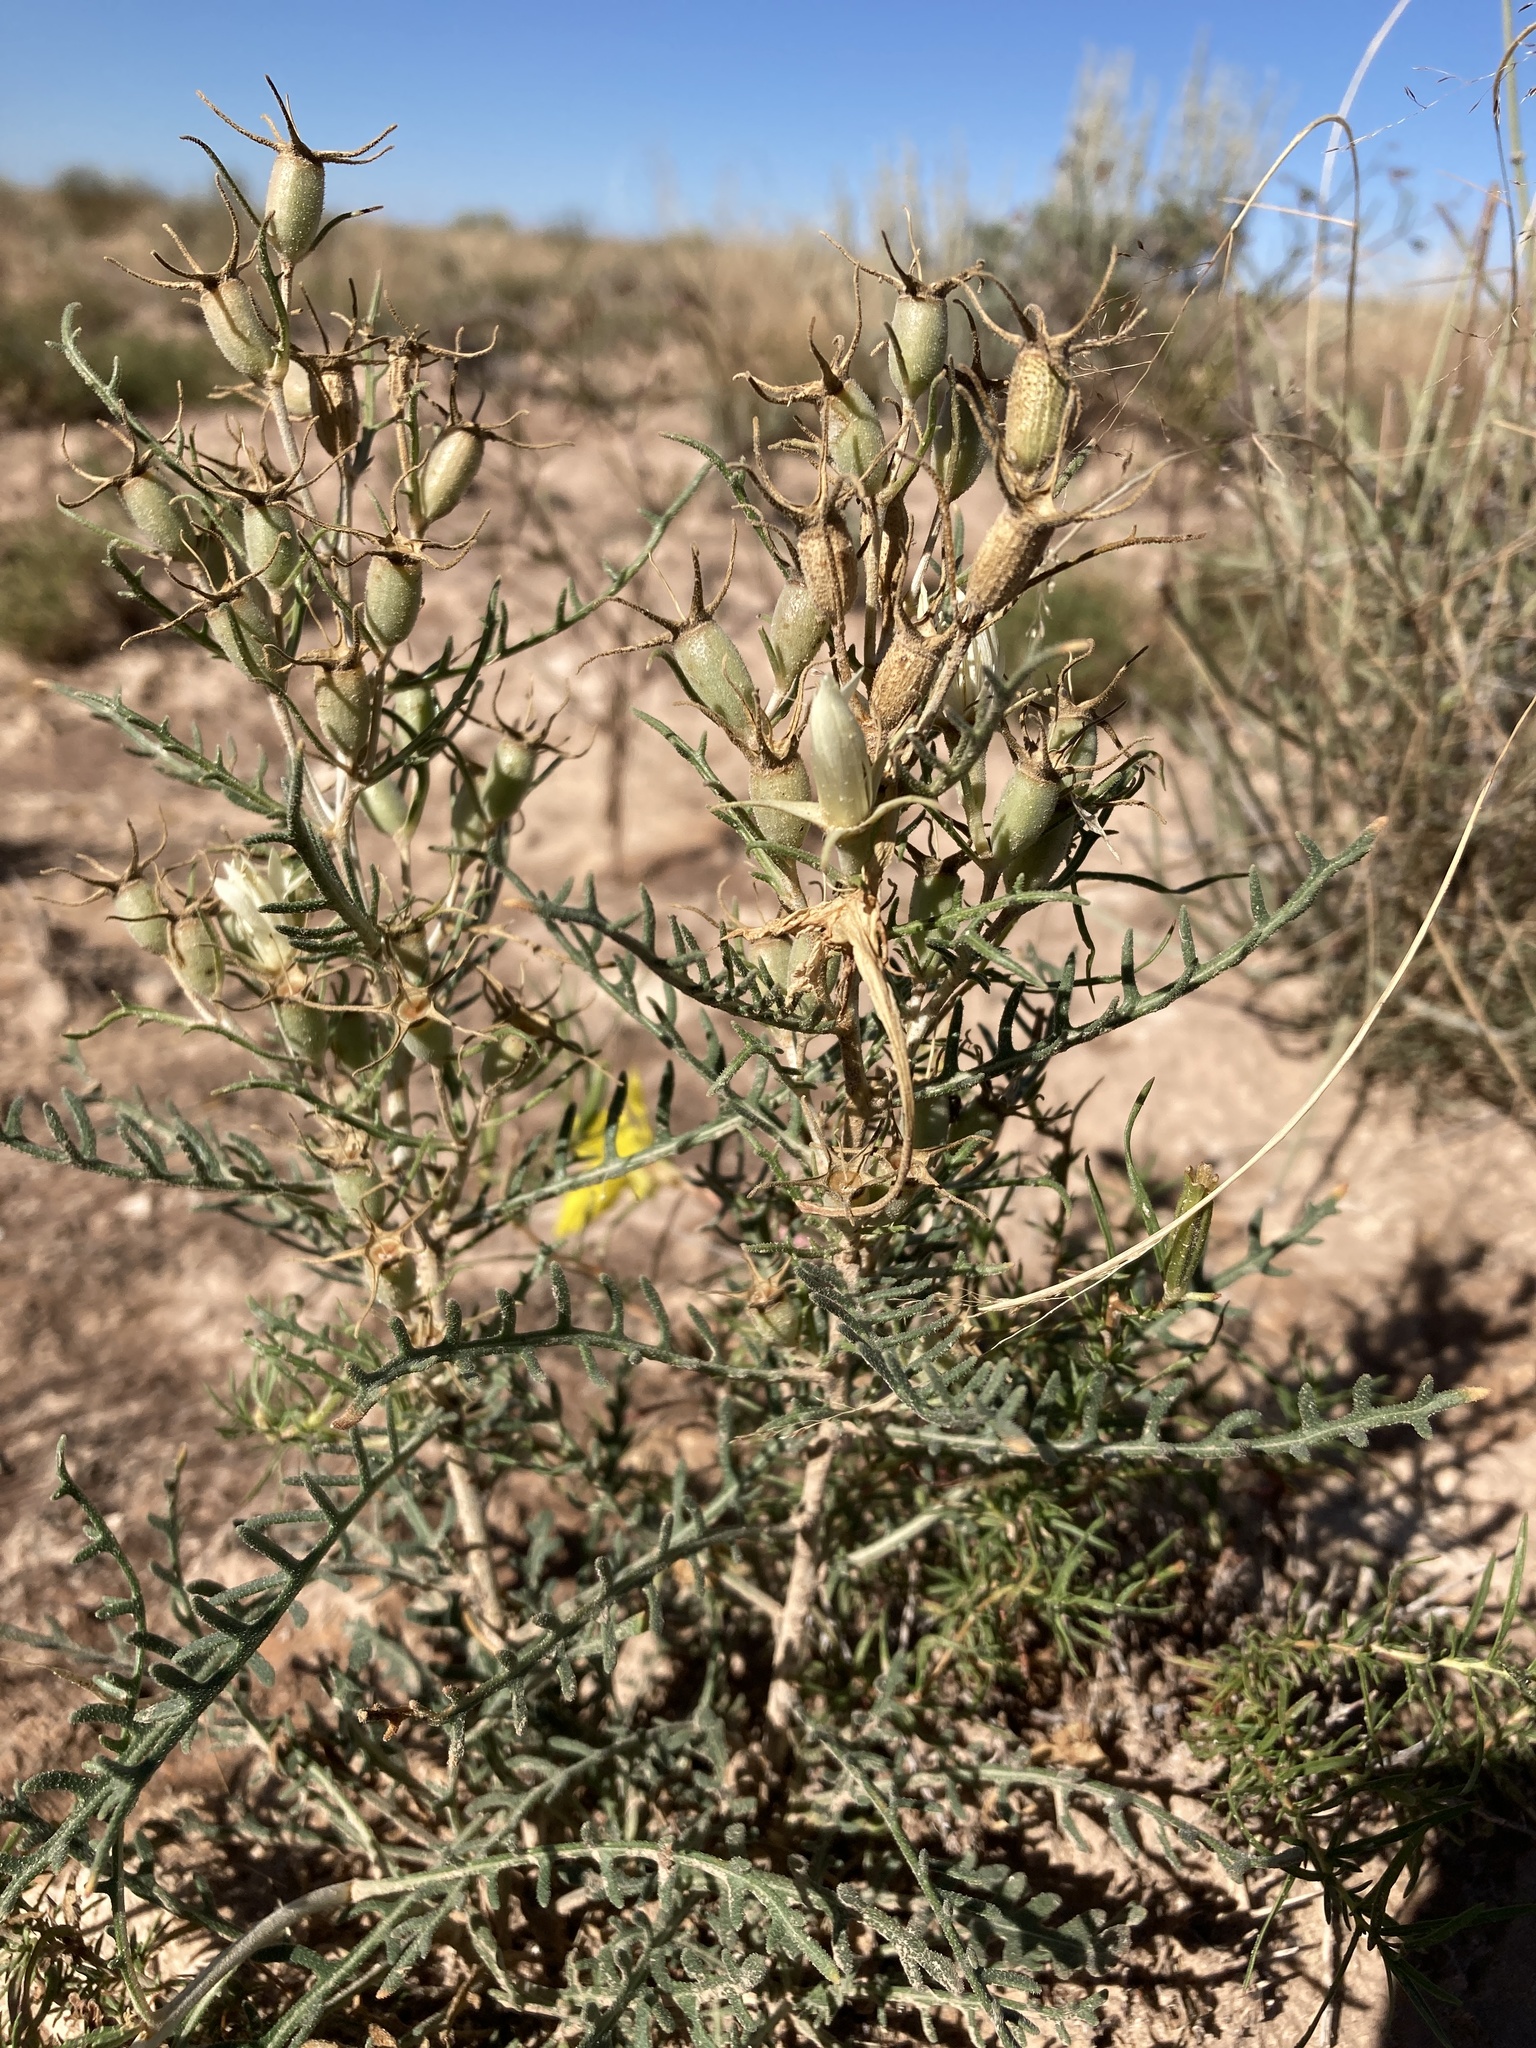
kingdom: Plantae
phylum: Tracheophyta
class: Magnoliopsida
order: Cornales
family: Loasaceae
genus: Mentzelia
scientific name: Mentzelia humilis
